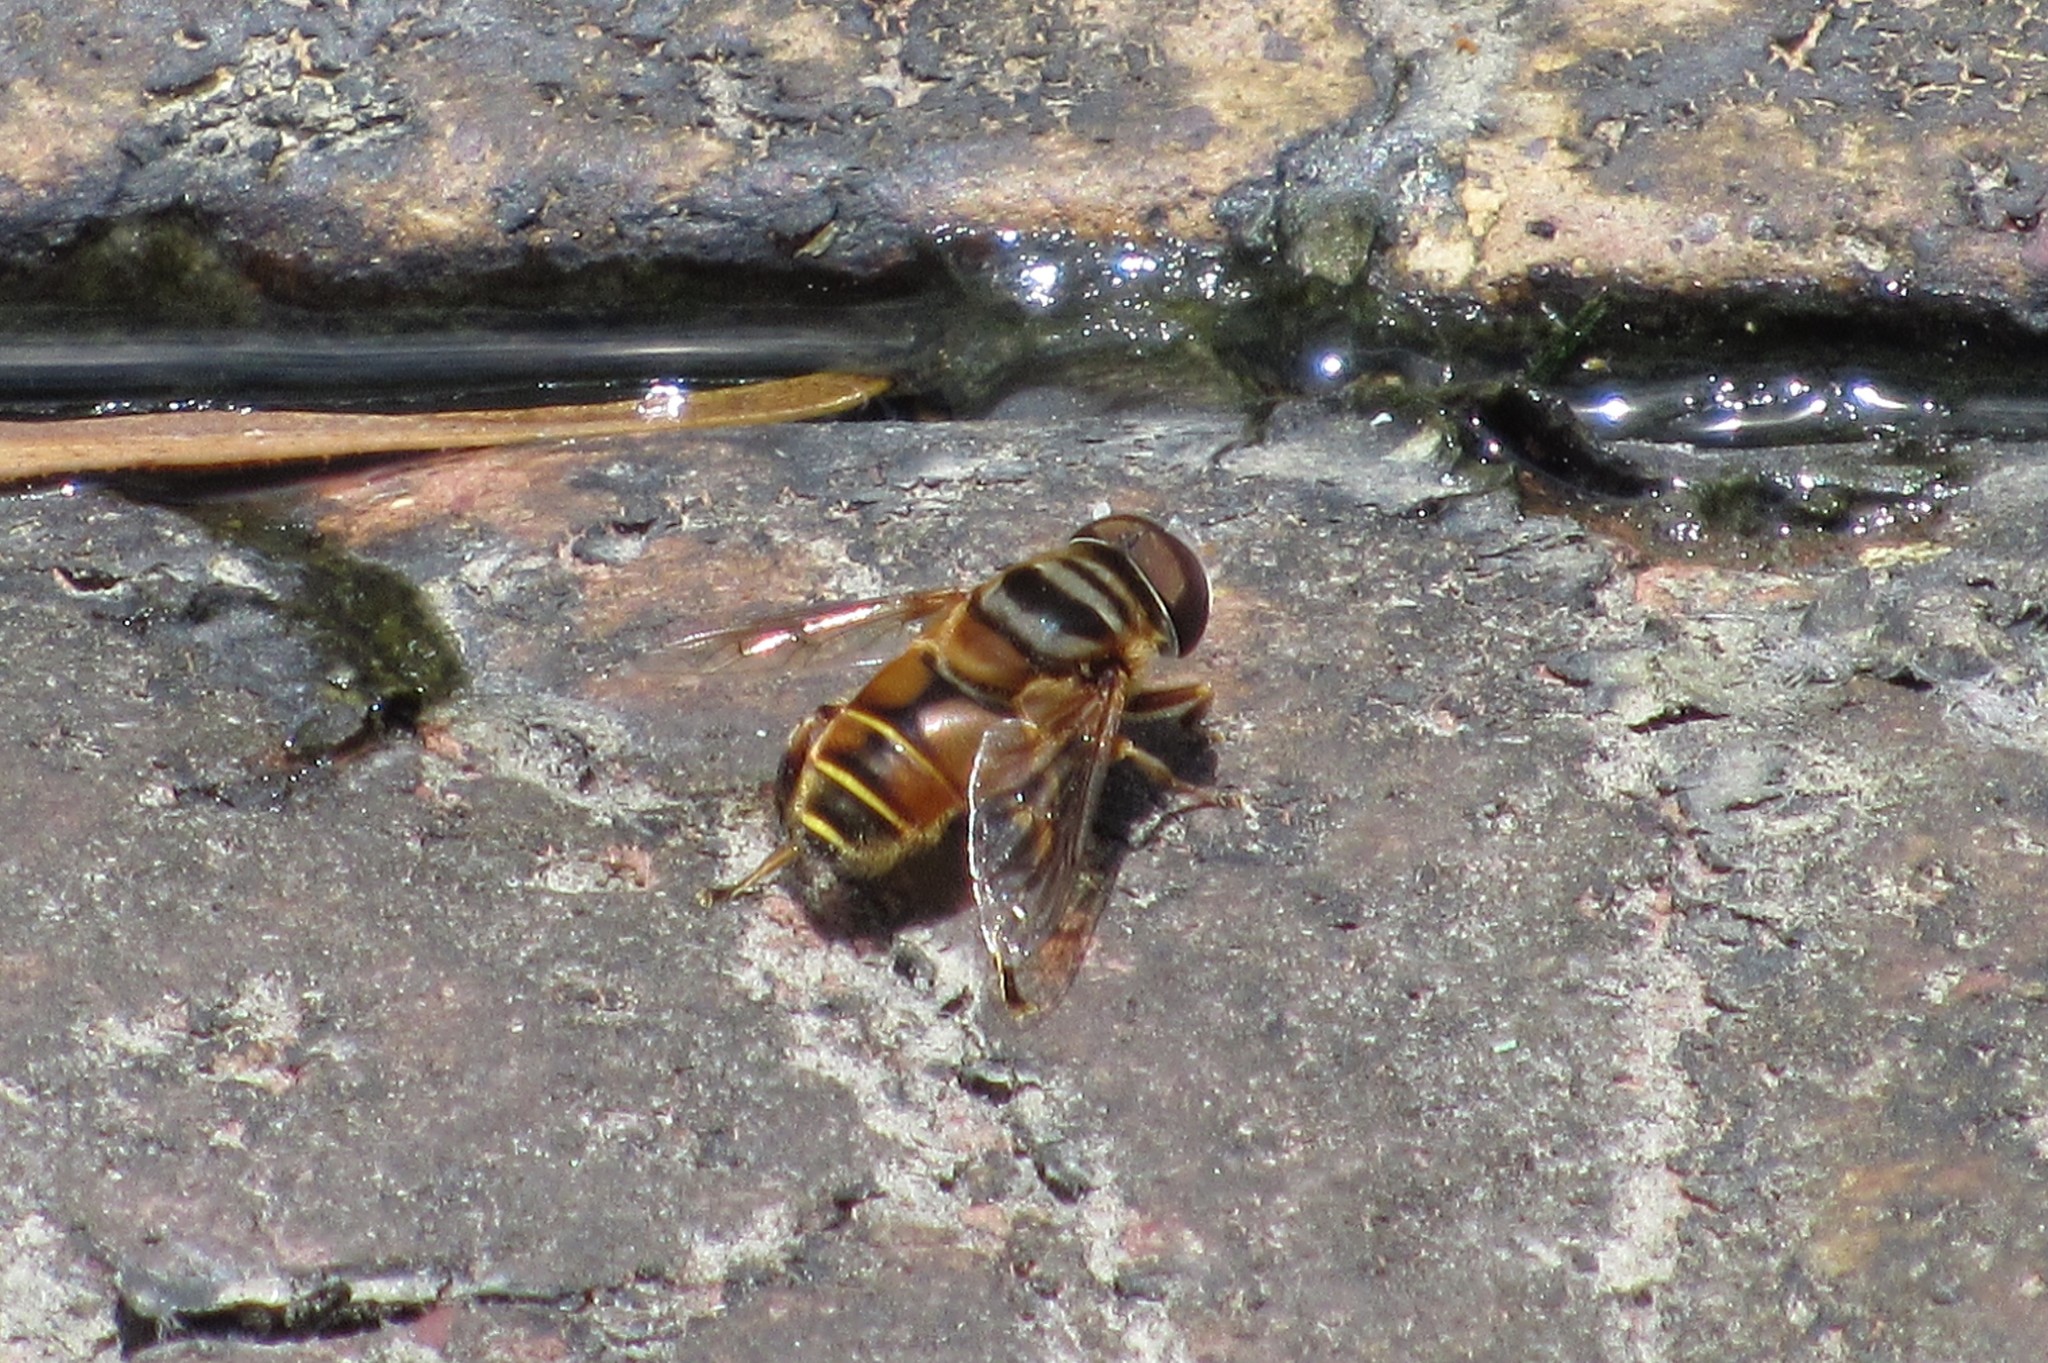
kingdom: Animalia
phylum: Arthropoda
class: Insecta
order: Diptera
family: Syrphidae
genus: Palpada
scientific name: Palpada vinetorum
